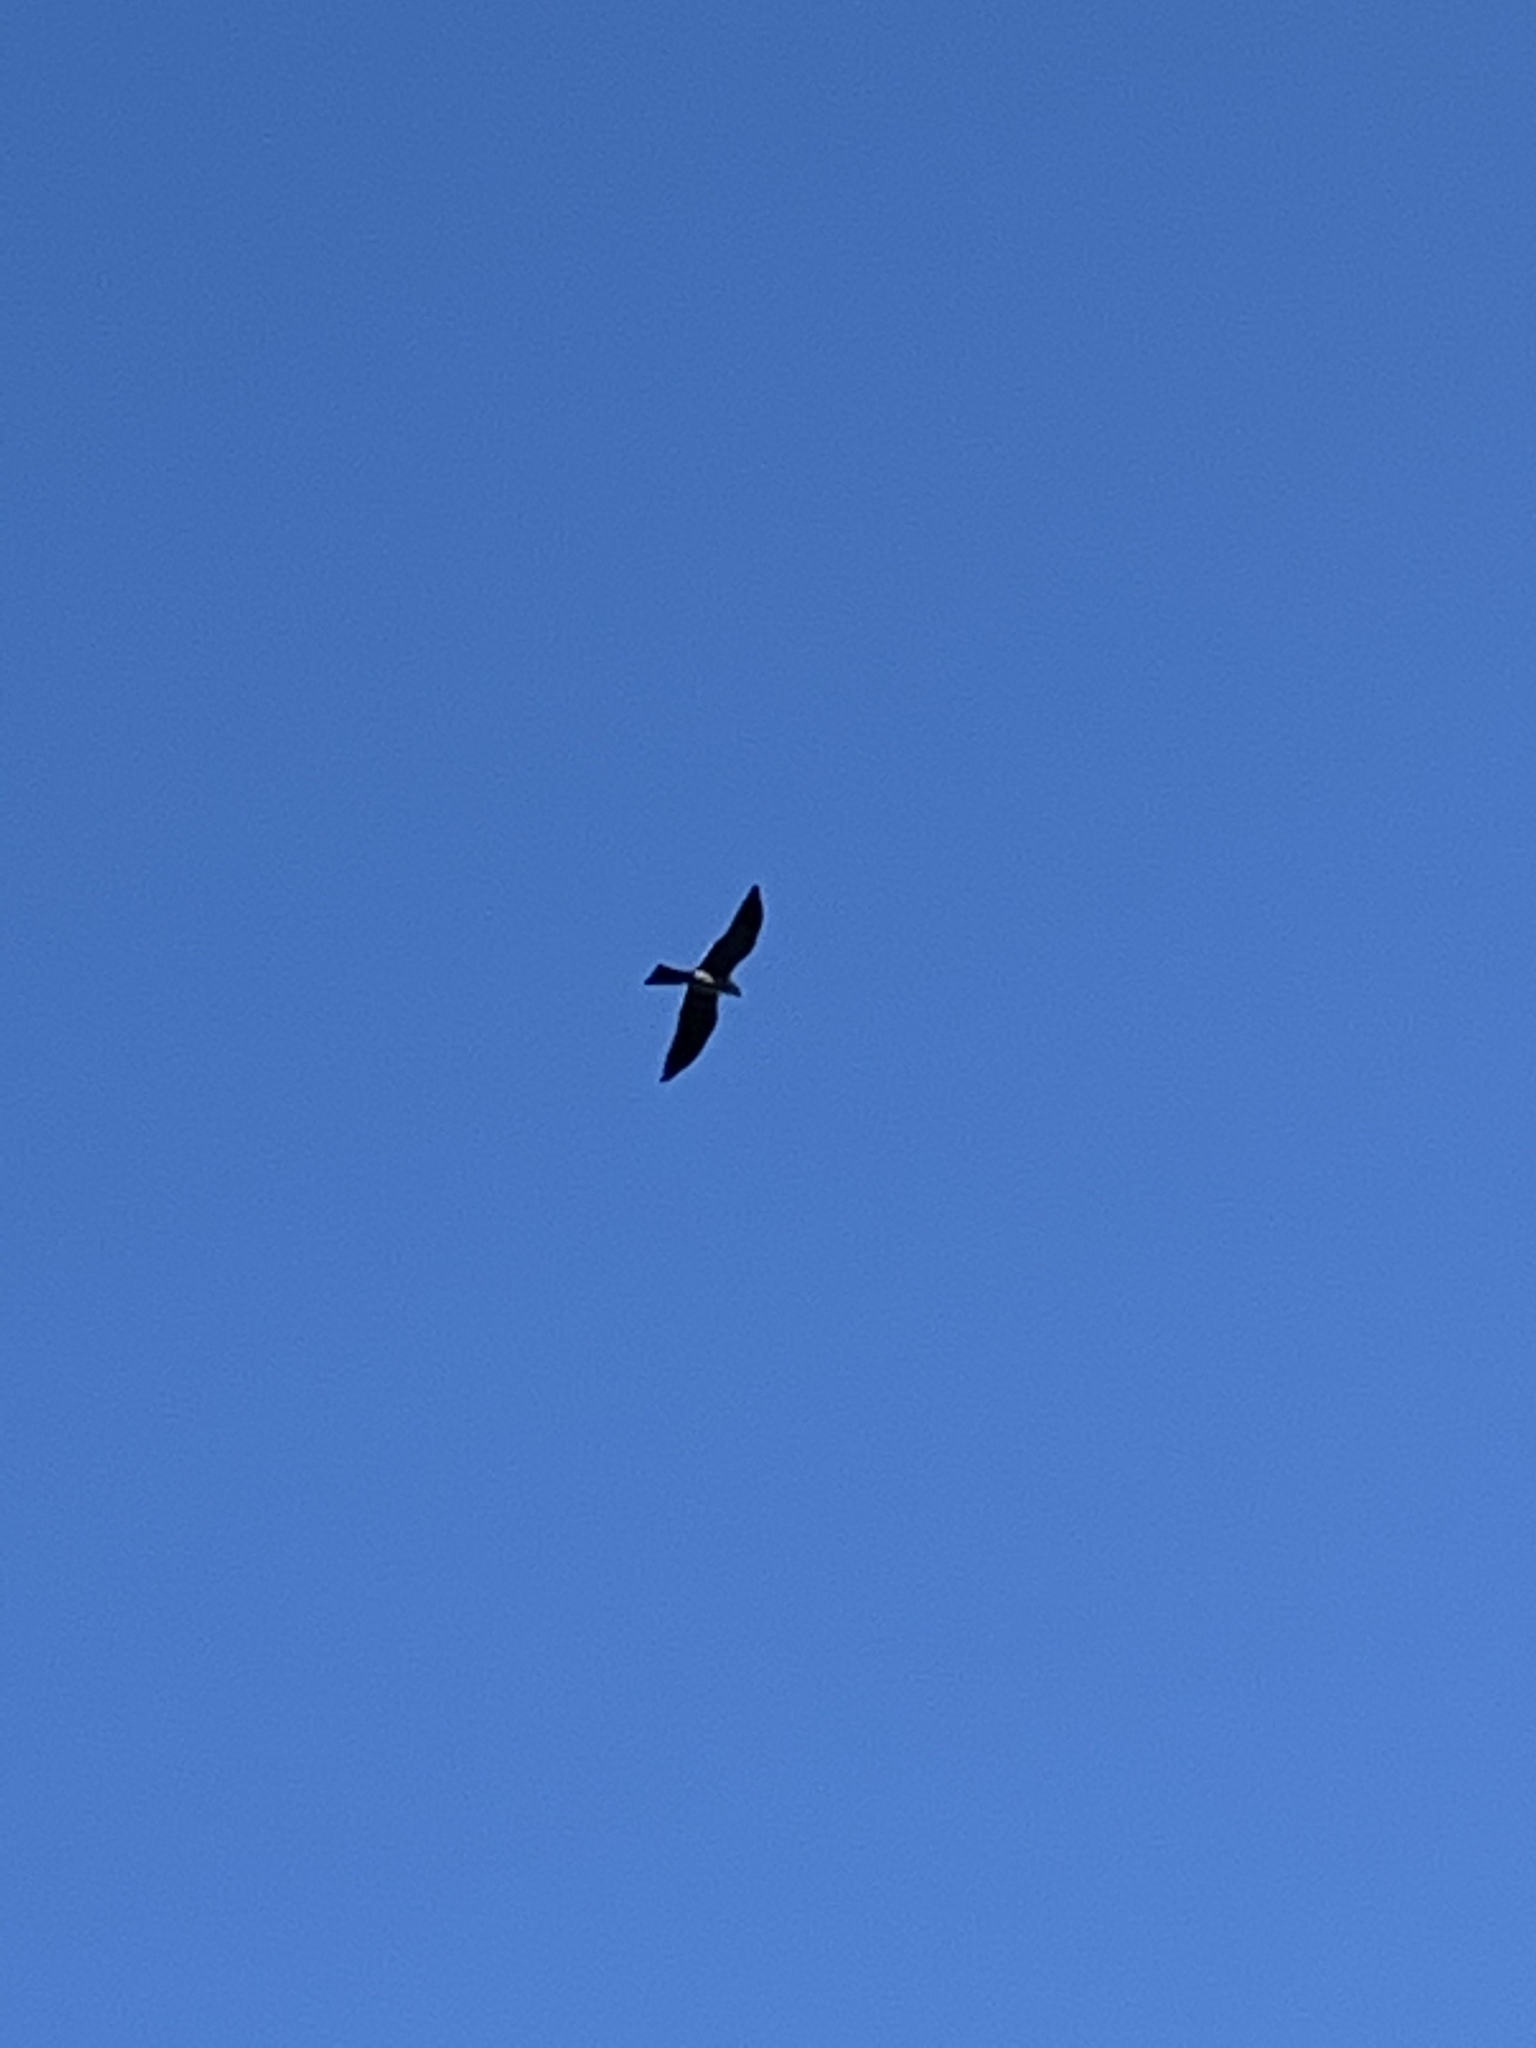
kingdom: Animalia
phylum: Chordata
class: Aves
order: Accipitriformes
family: Accipitridae
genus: Ictinia
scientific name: Ictinia mississippiensis
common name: Mississippi kite
